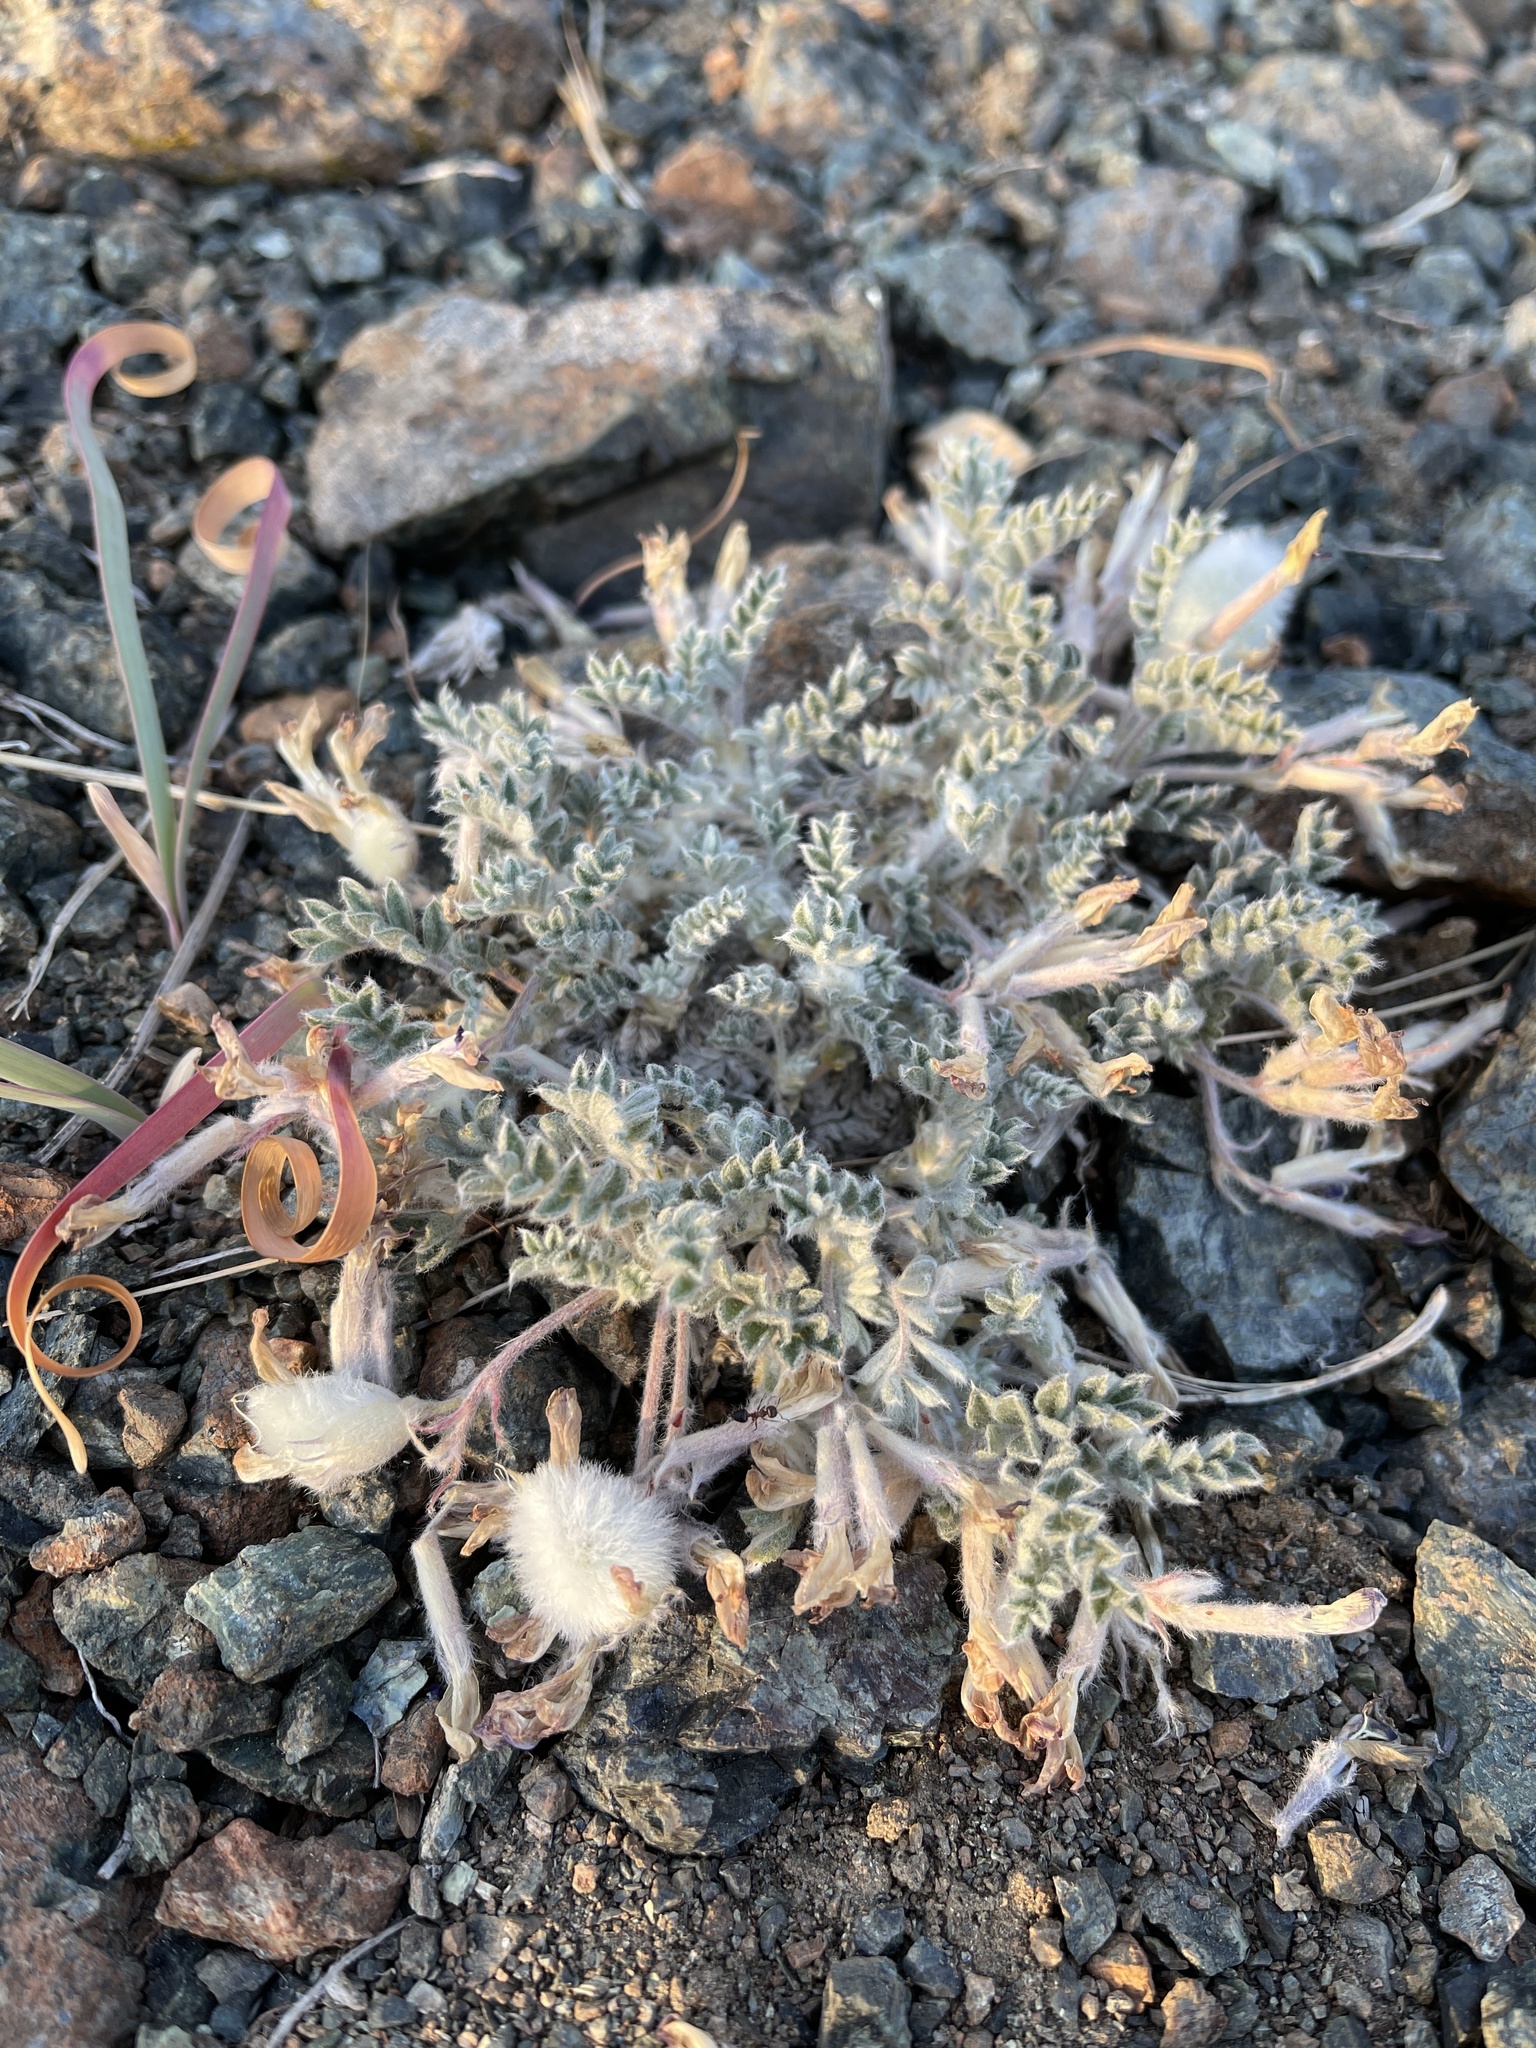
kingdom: Plantae
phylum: Tracheophyta
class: Magnoliopsida
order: Fabales
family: Fabaceae
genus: Astragalus
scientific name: Astragalus purshii
